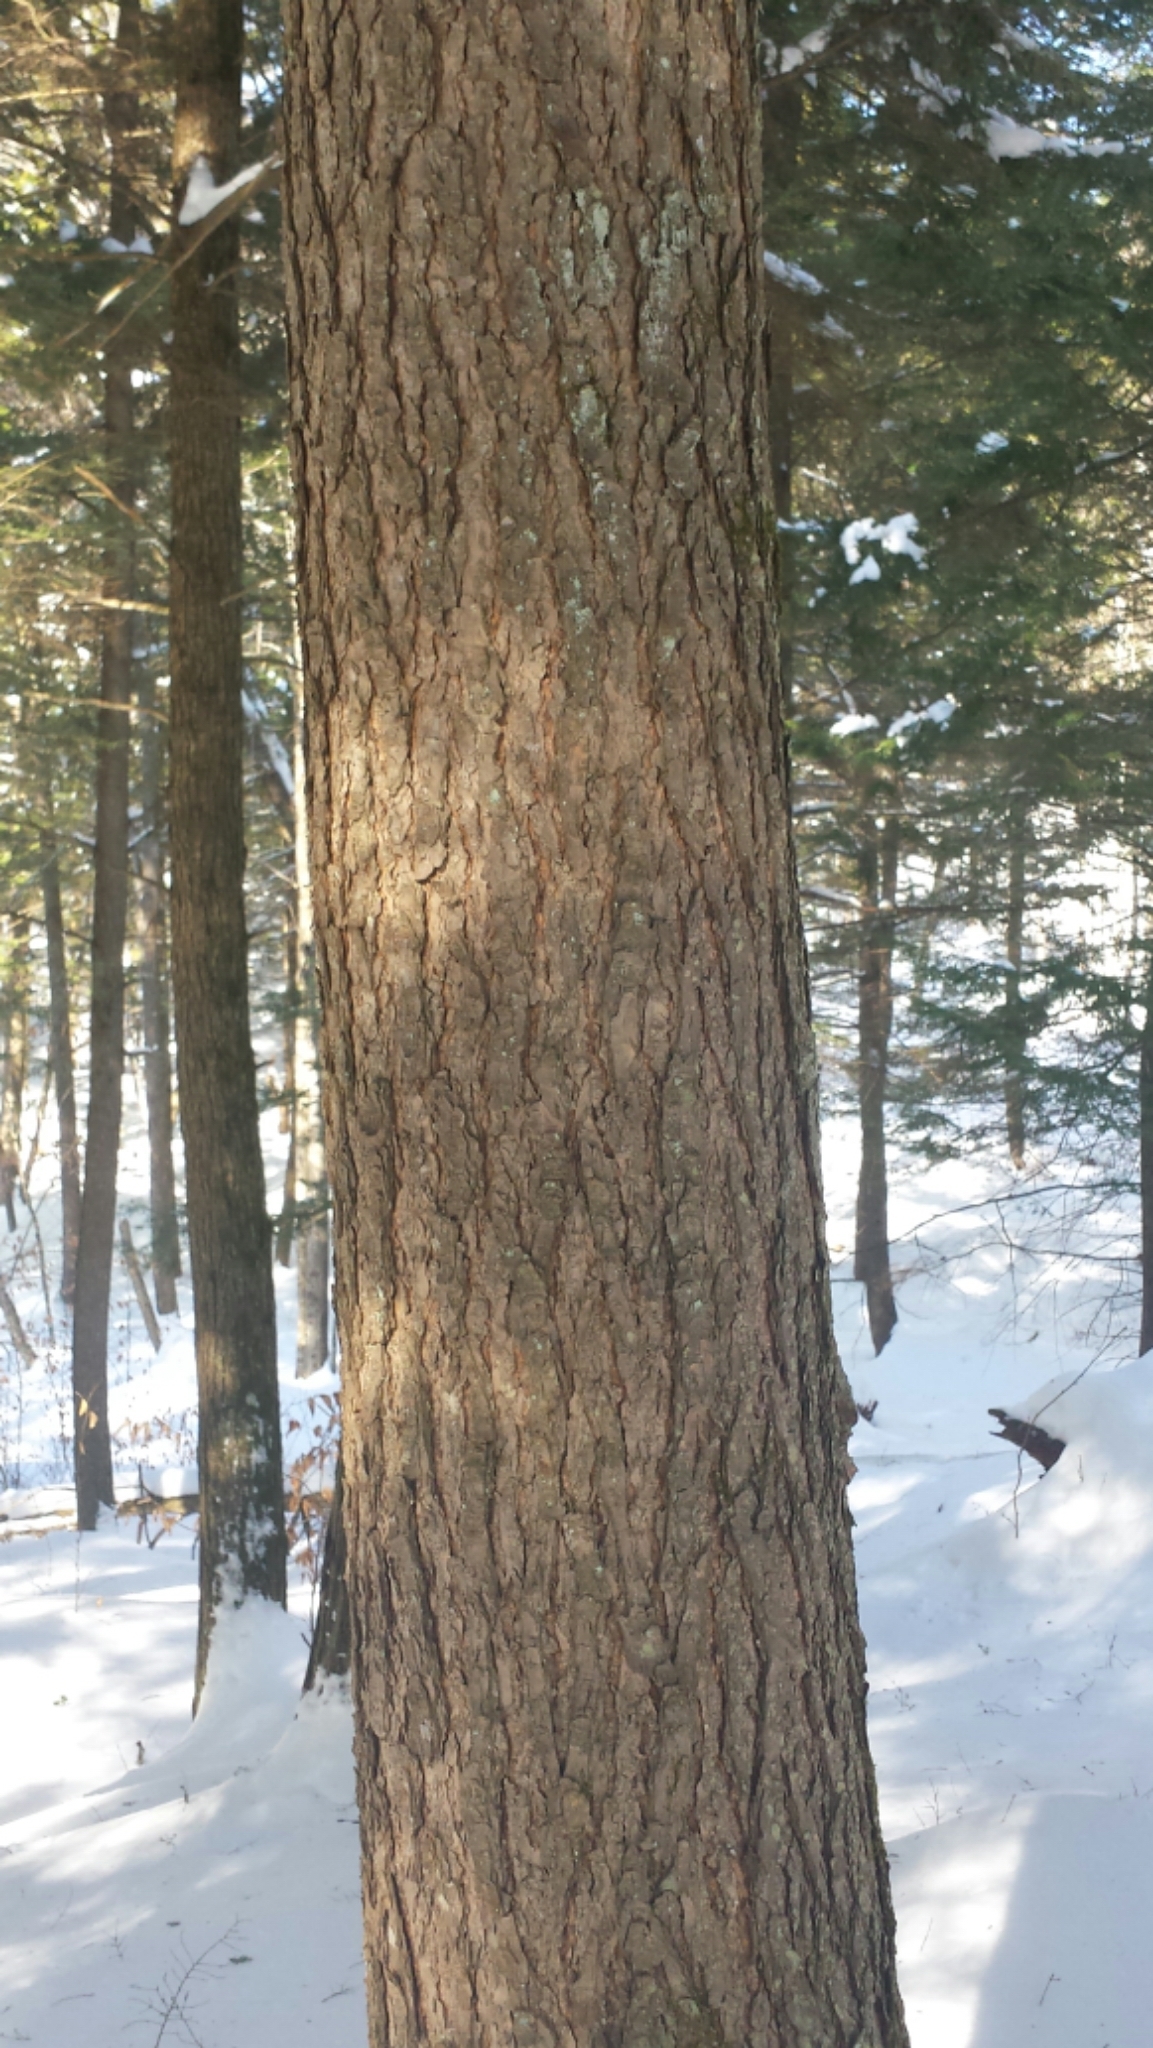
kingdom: Plantae
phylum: Tracheophyta
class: Pinopsida
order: Pinales
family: Pinaceae
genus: Tsuga
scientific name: Tsuga canadensis
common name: Eastern hemlock
